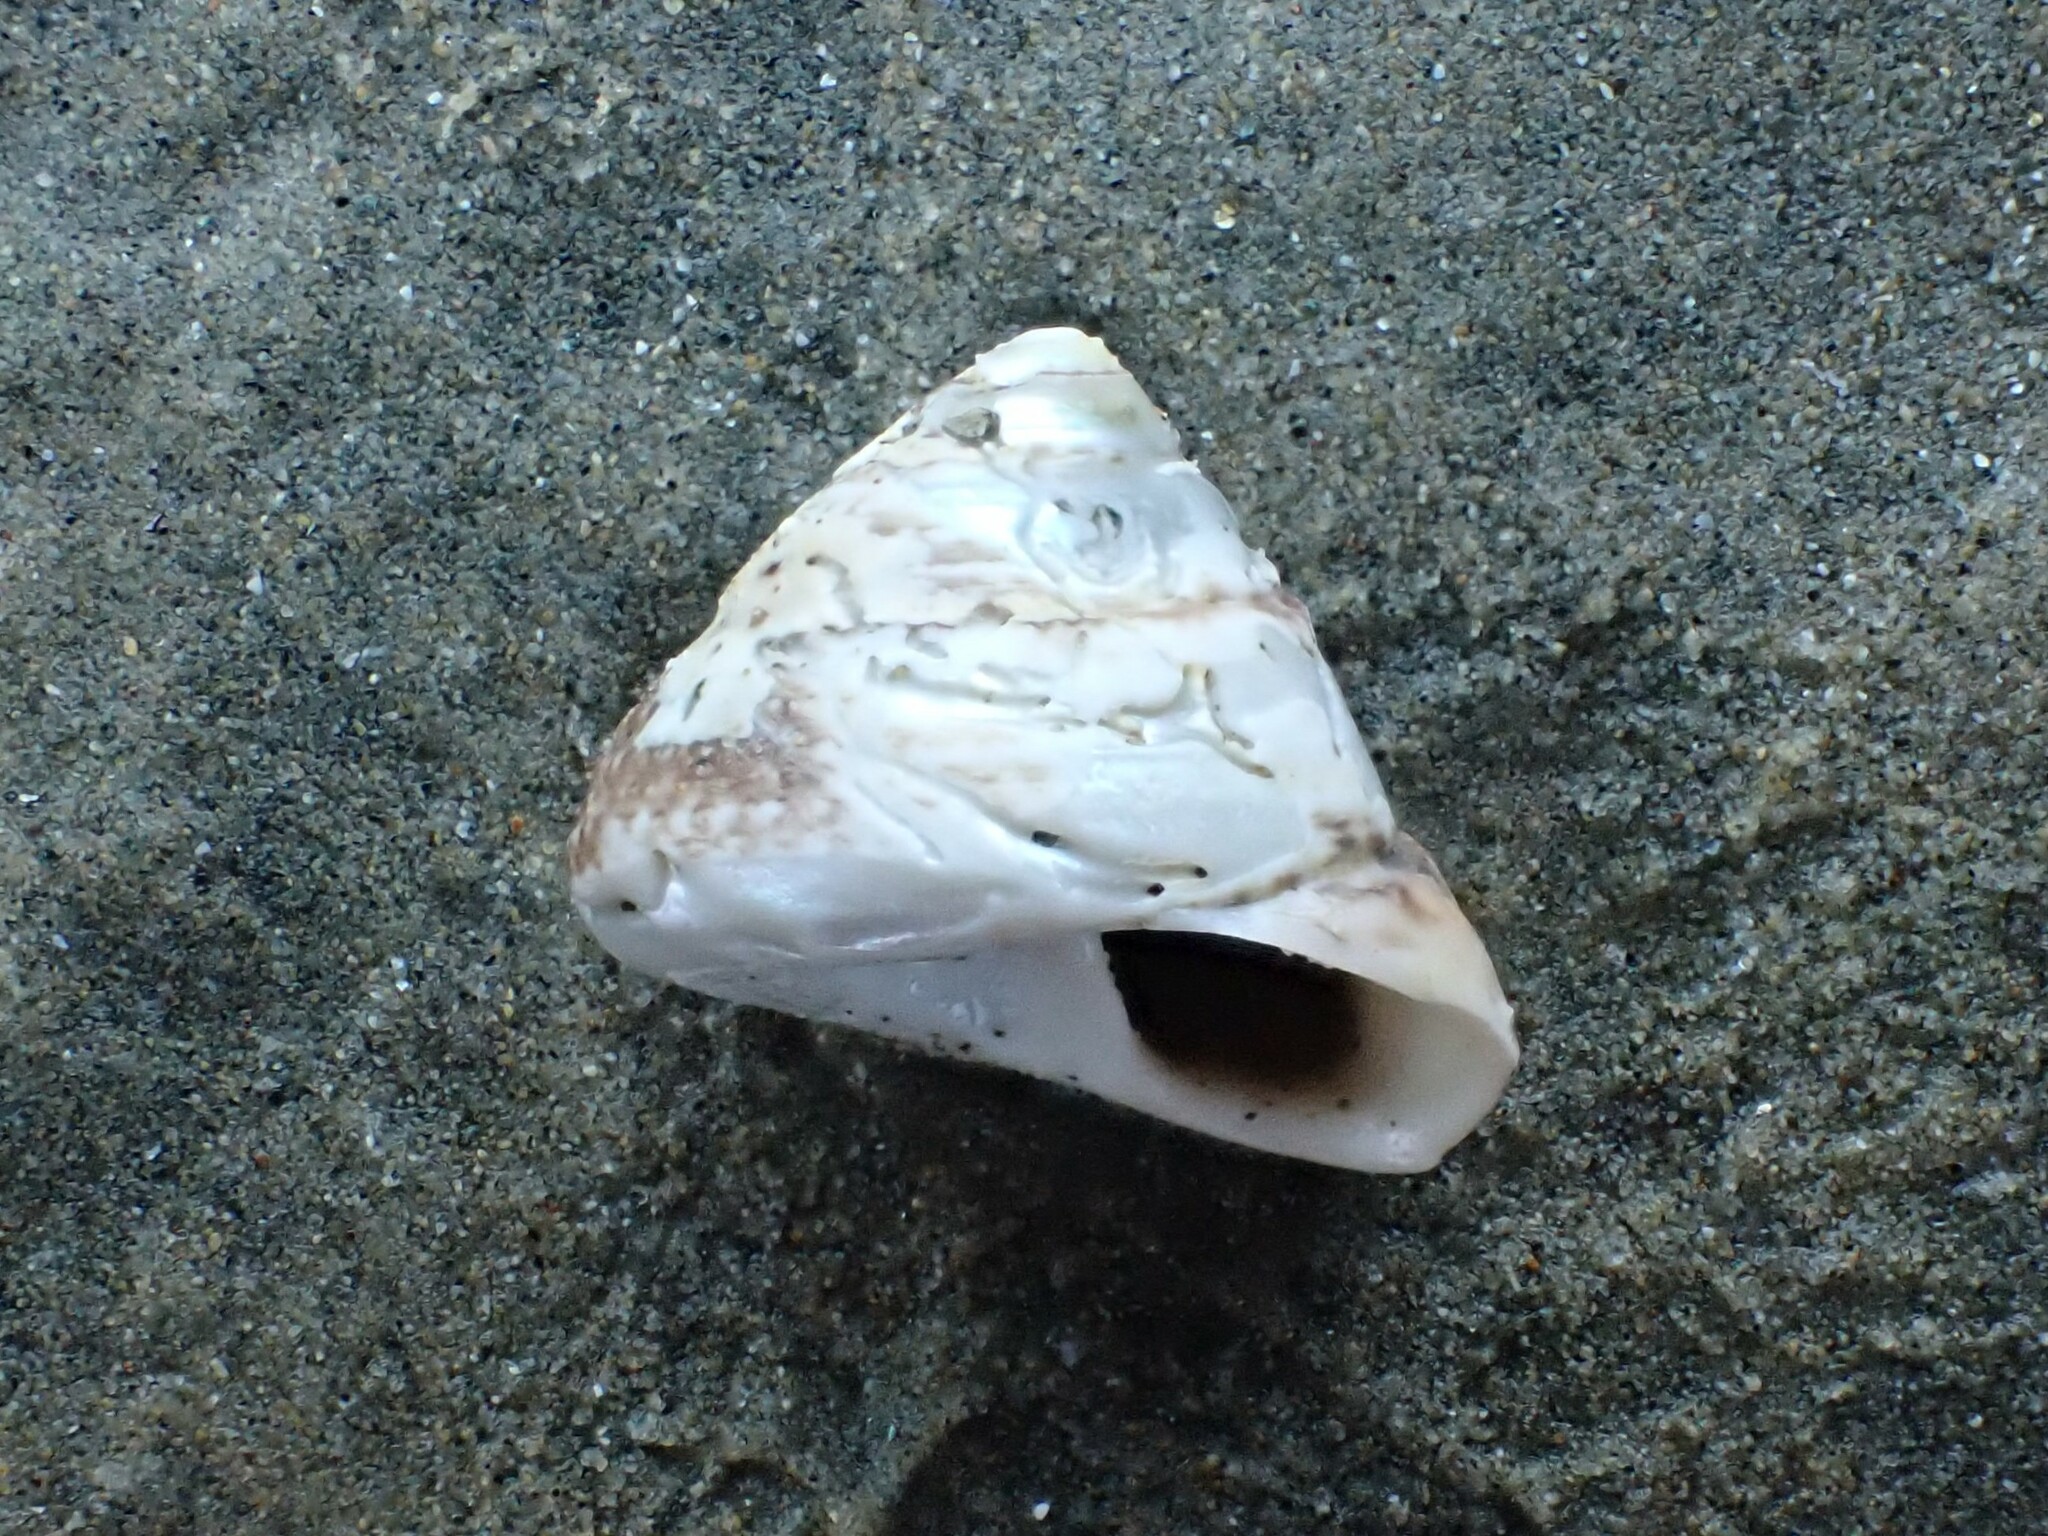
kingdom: Animalia
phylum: Mollusca
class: Gastropoda
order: Trochida
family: Trochidae
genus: Coelotrochus
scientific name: Coelotrochus tiaratus
